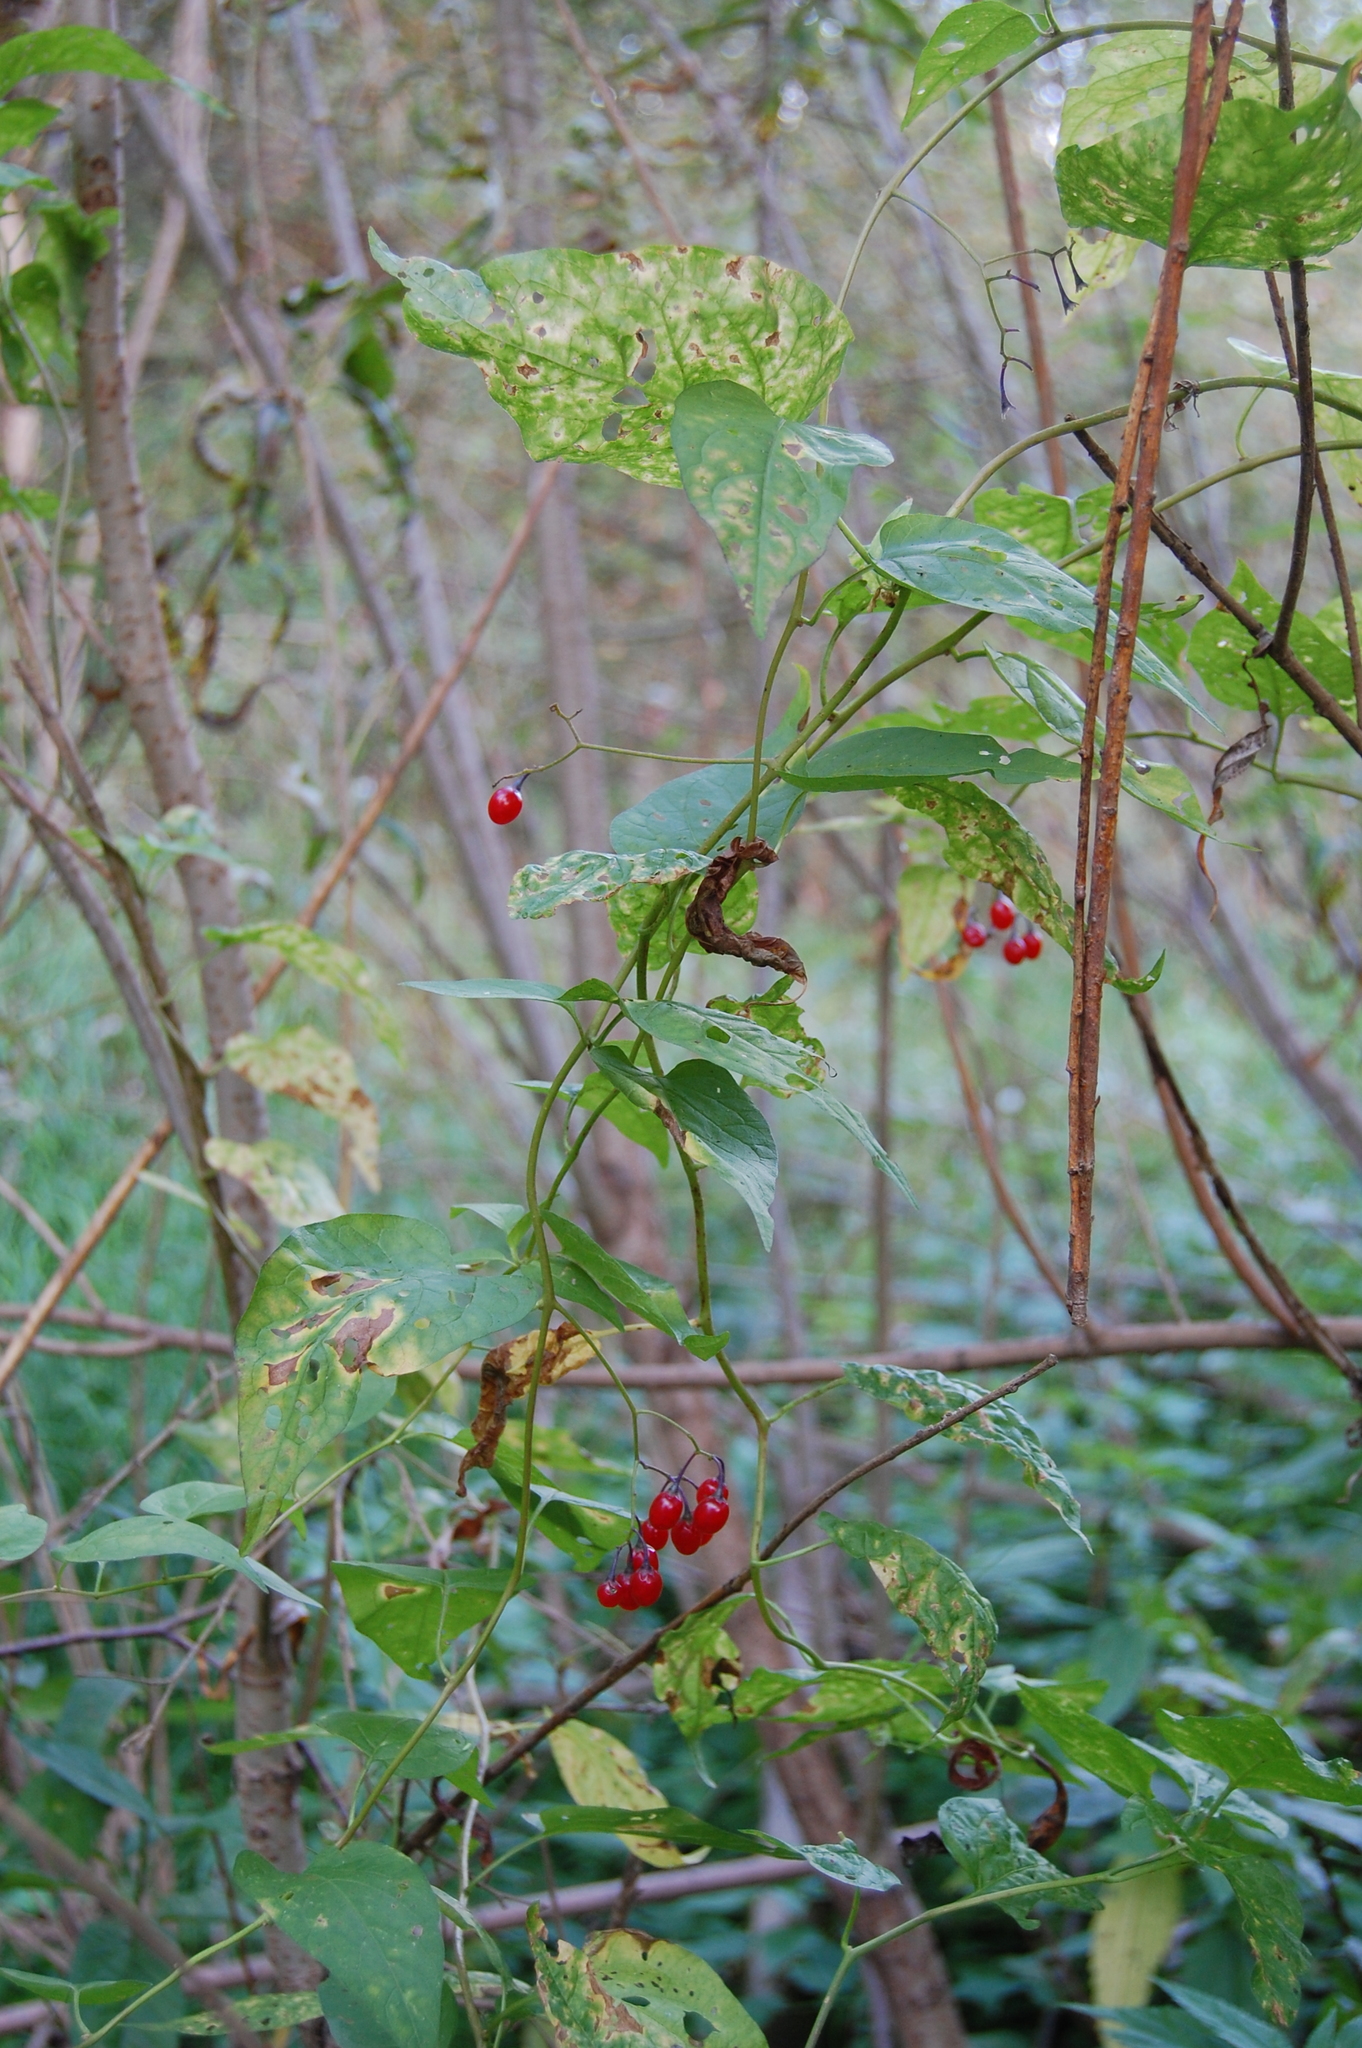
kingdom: Plantae
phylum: Tracheophyta
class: Magnoliopsida
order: Solanales
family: Solanaceae
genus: Solanum
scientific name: Solanum dulcamara
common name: Climbing nightshade
